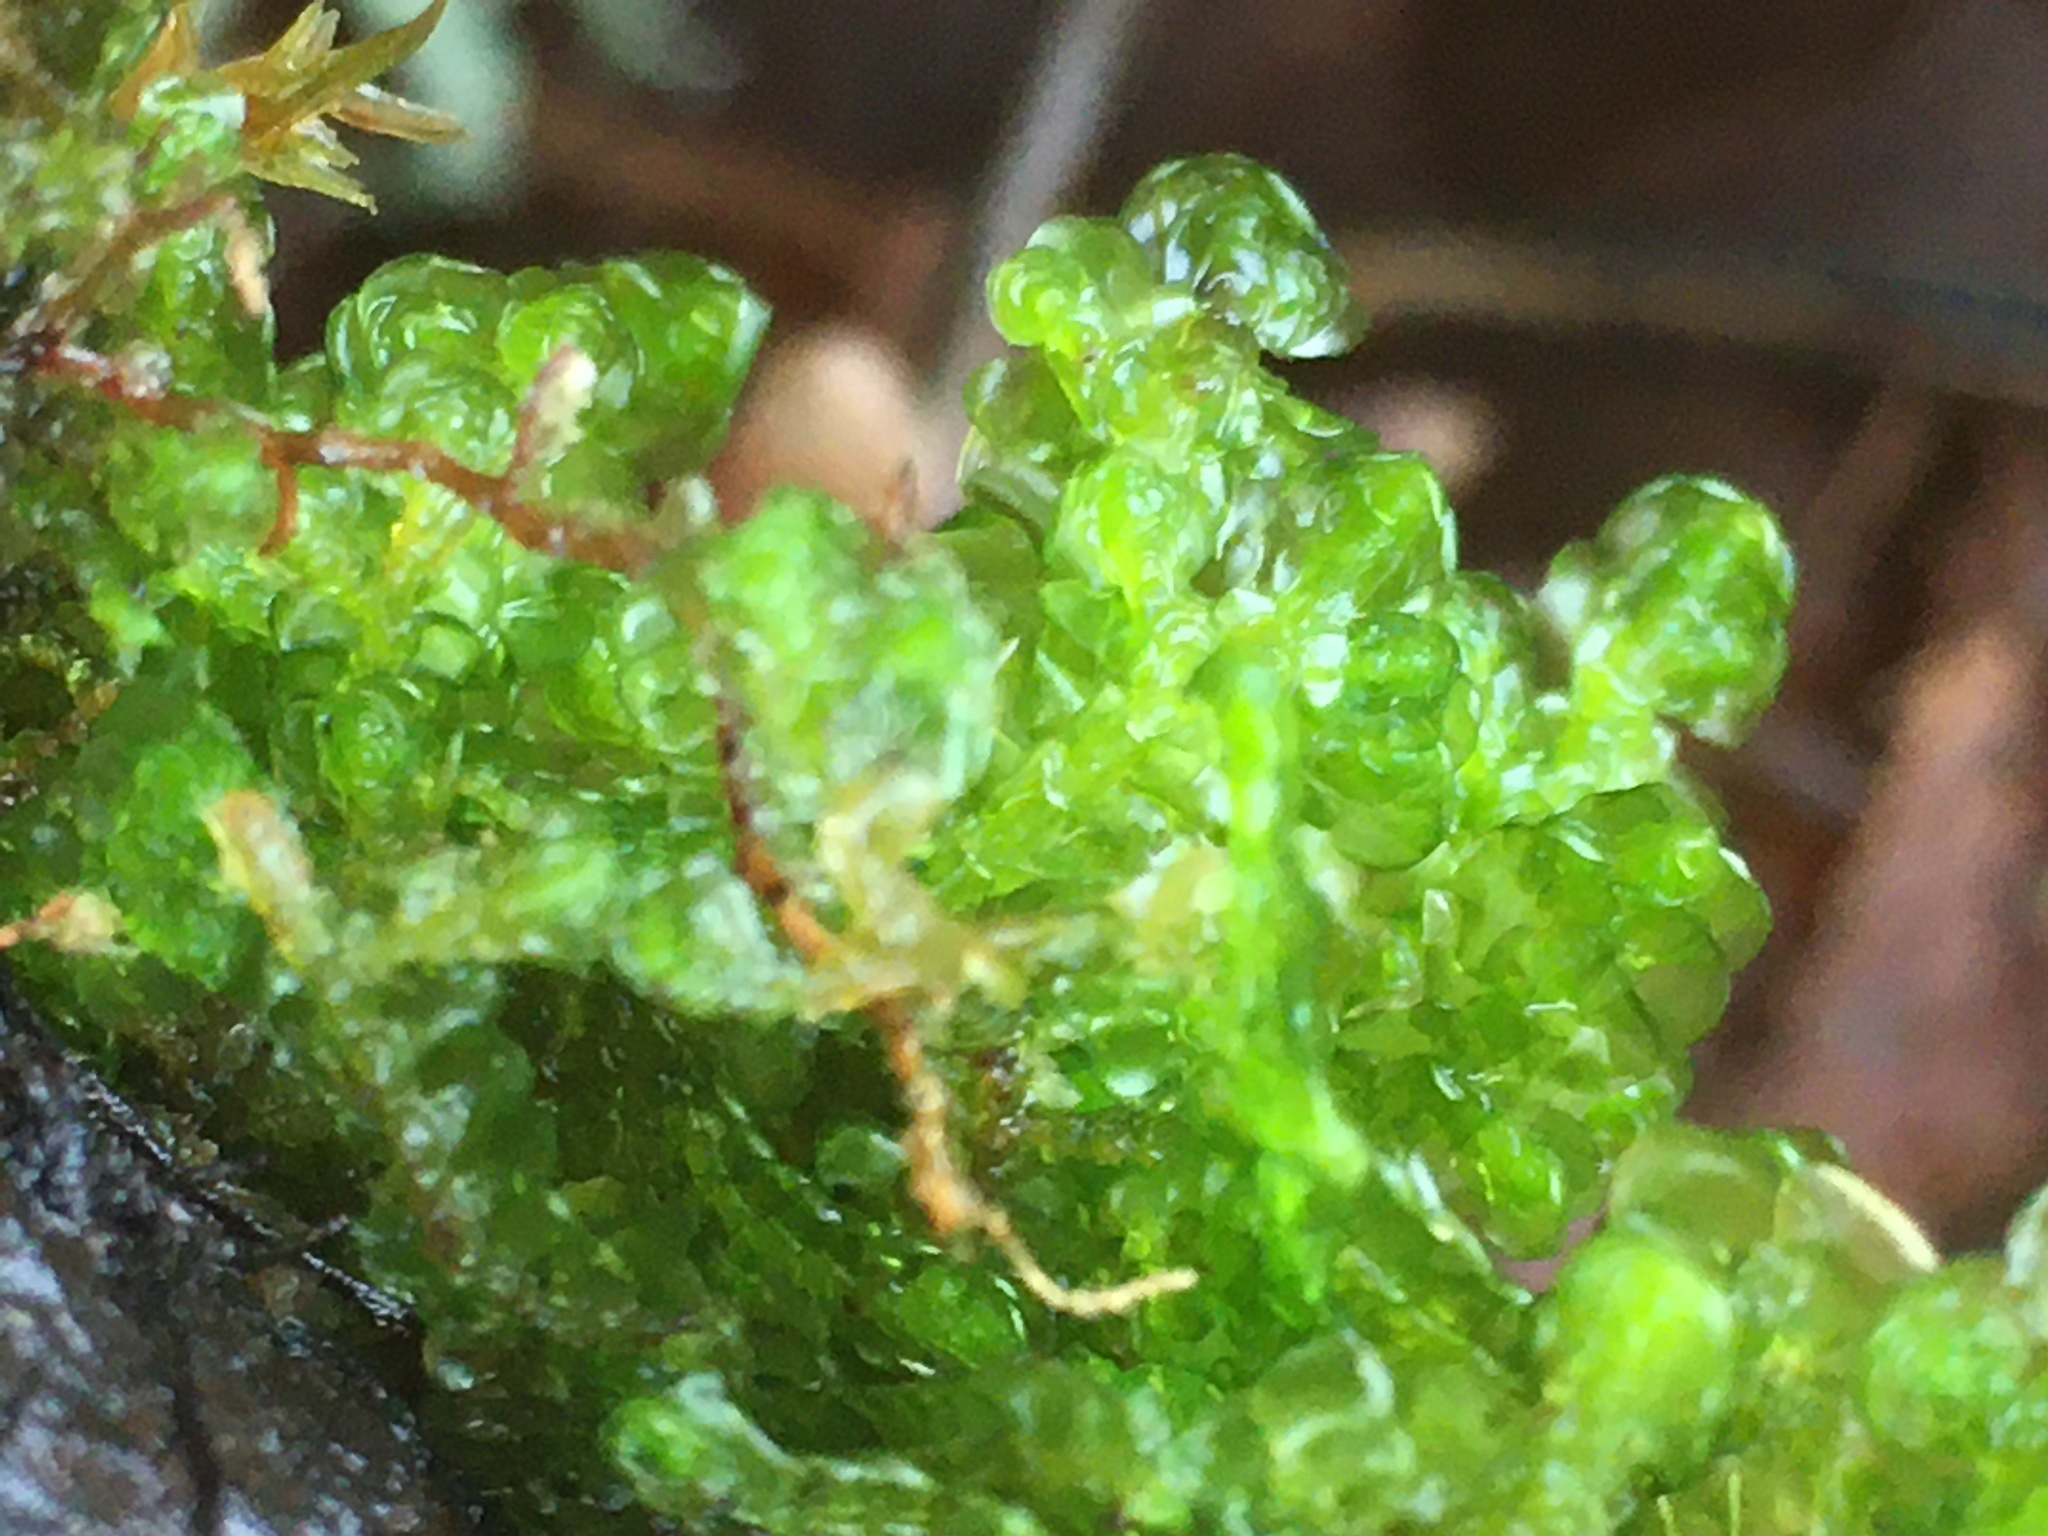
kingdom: Plantae
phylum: Marchantiophyta
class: Jungermanniopsida
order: Porellales
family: Porellaceae
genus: Porella
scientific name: Porella navicularis
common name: Tree ruffle liverwort
